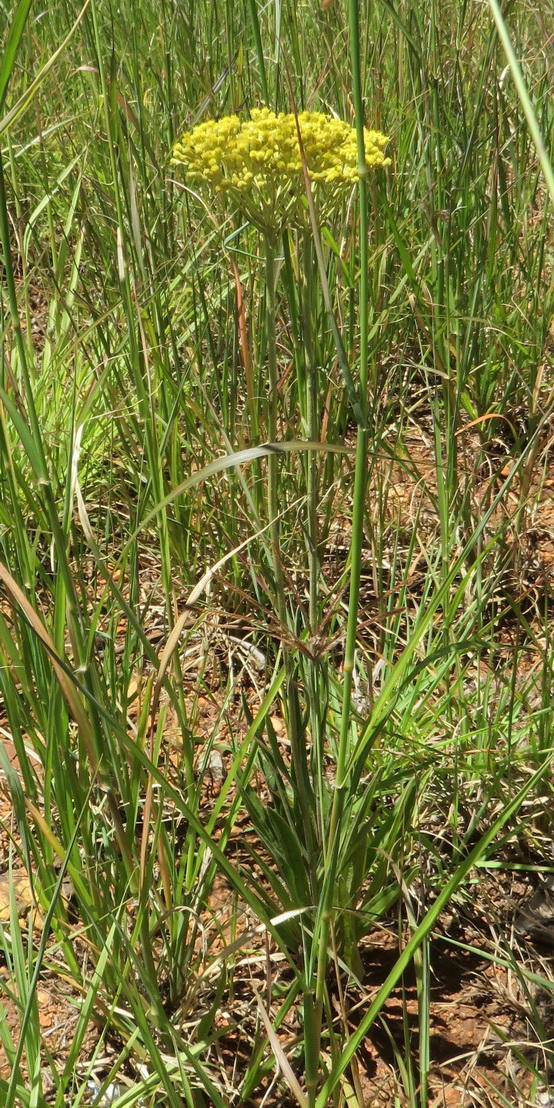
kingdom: Plantae
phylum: Tracheophyta
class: Magnoliopsida
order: Asterales
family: Asteraceae
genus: Helichrysum
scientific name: Helichrysum nudifolium
